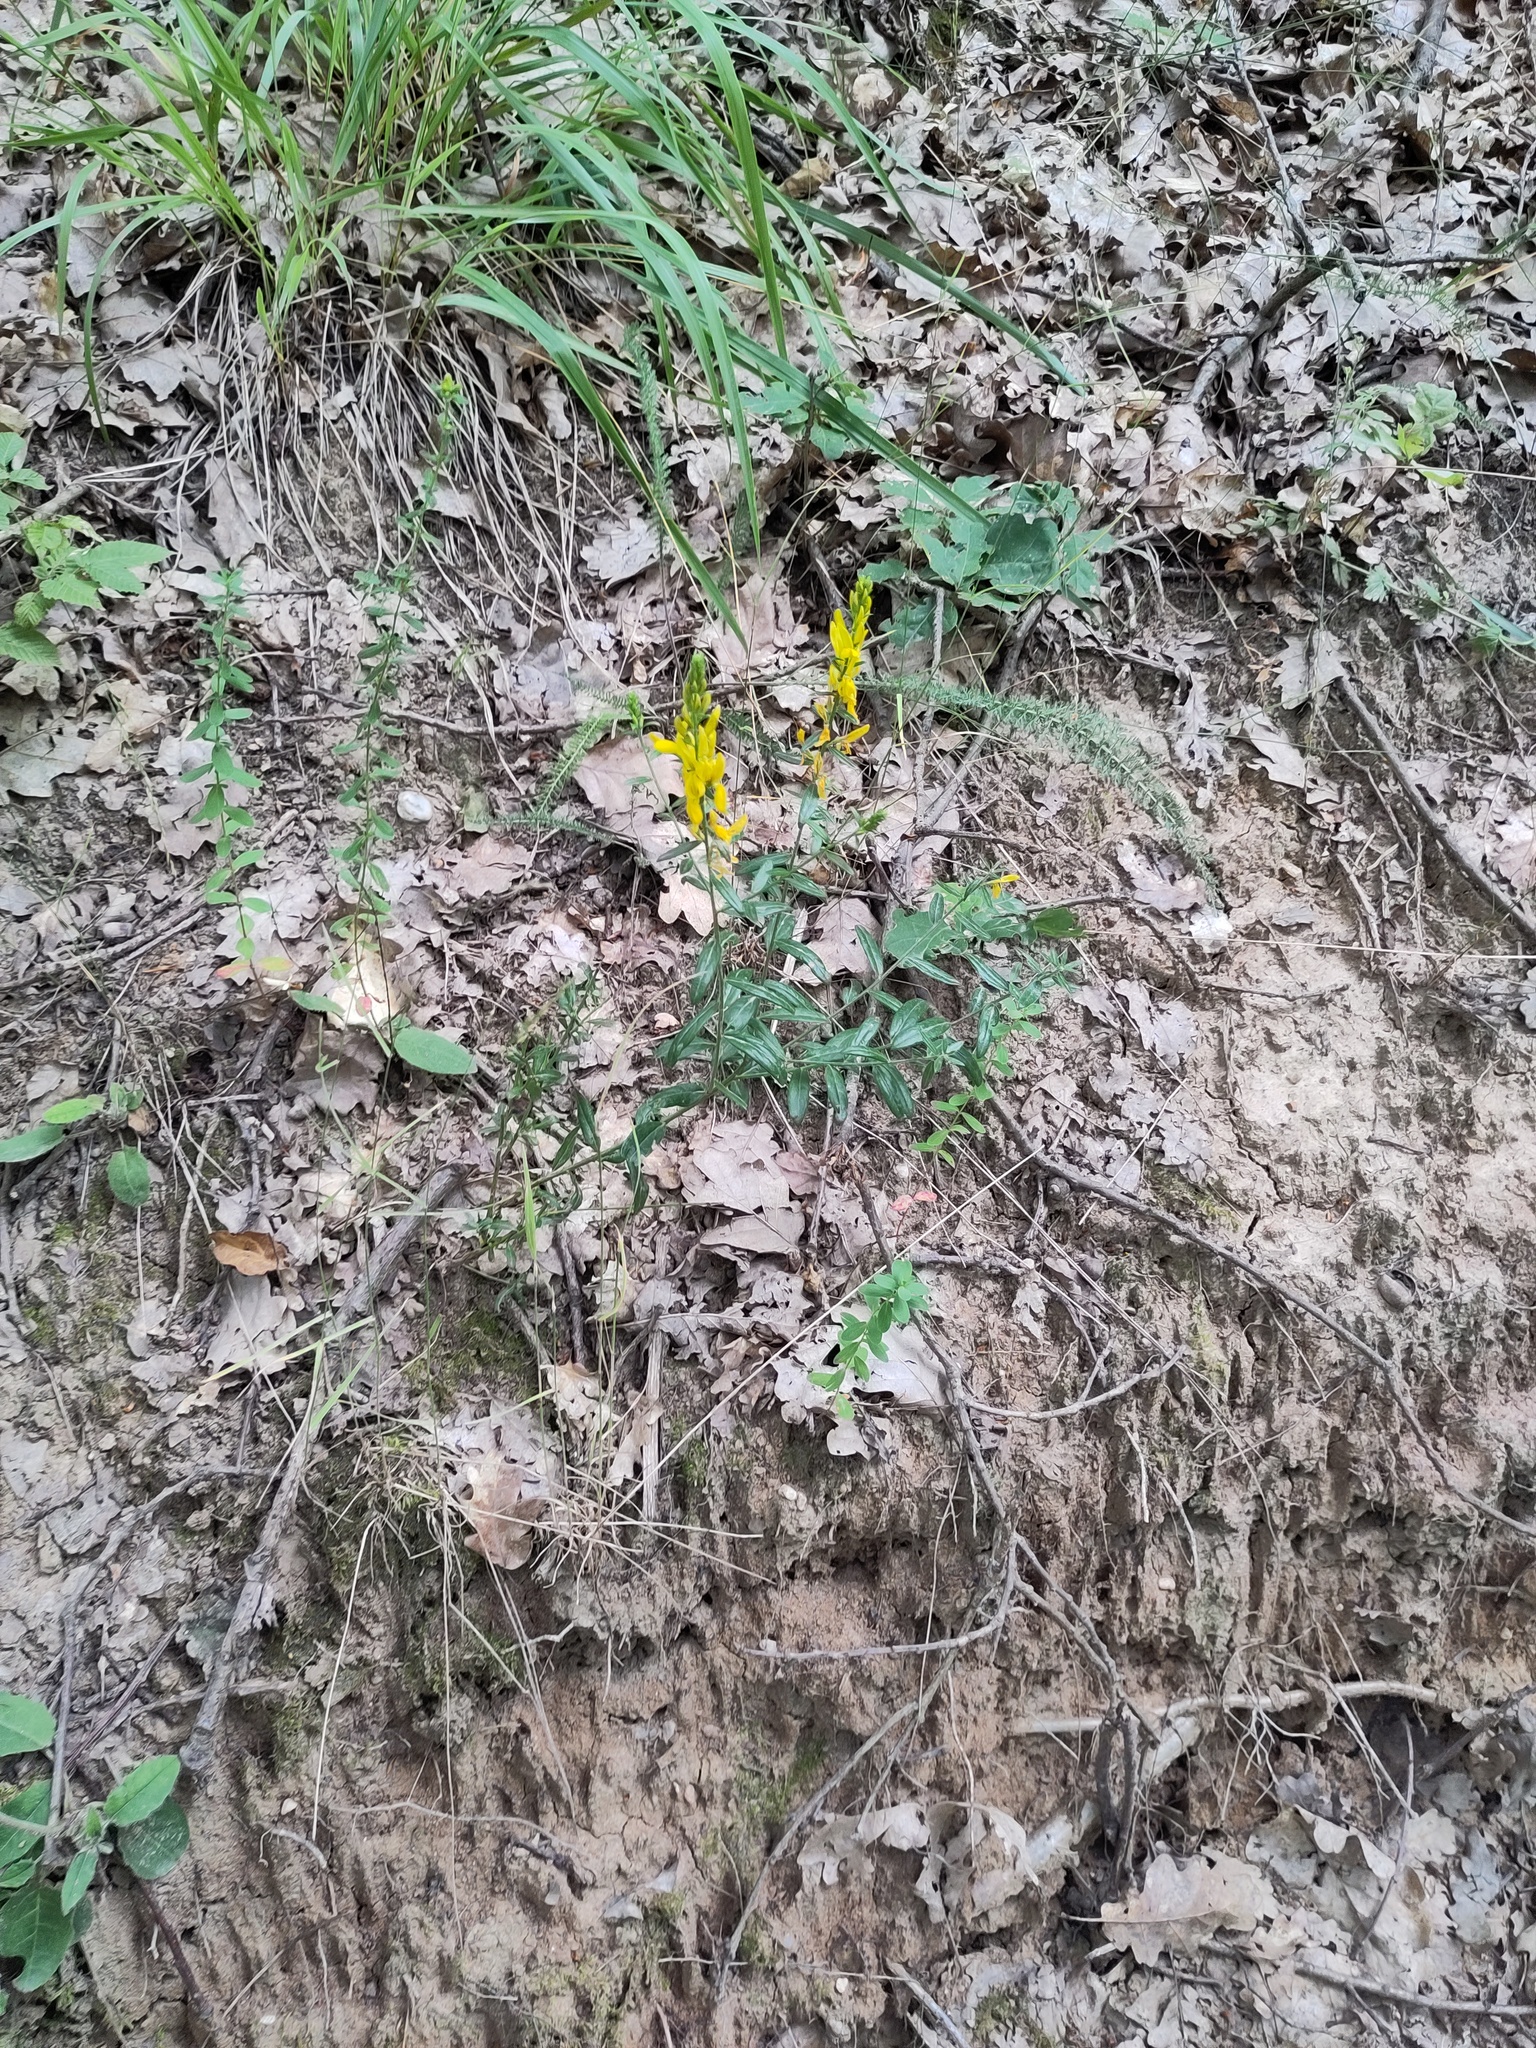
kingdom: Plantae
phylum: Tracheophyta
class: Magnoliopsida
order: Fabales
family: Fabaceae
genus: Genista
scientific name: Genista tinctoria
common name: Dyer's greenweed
